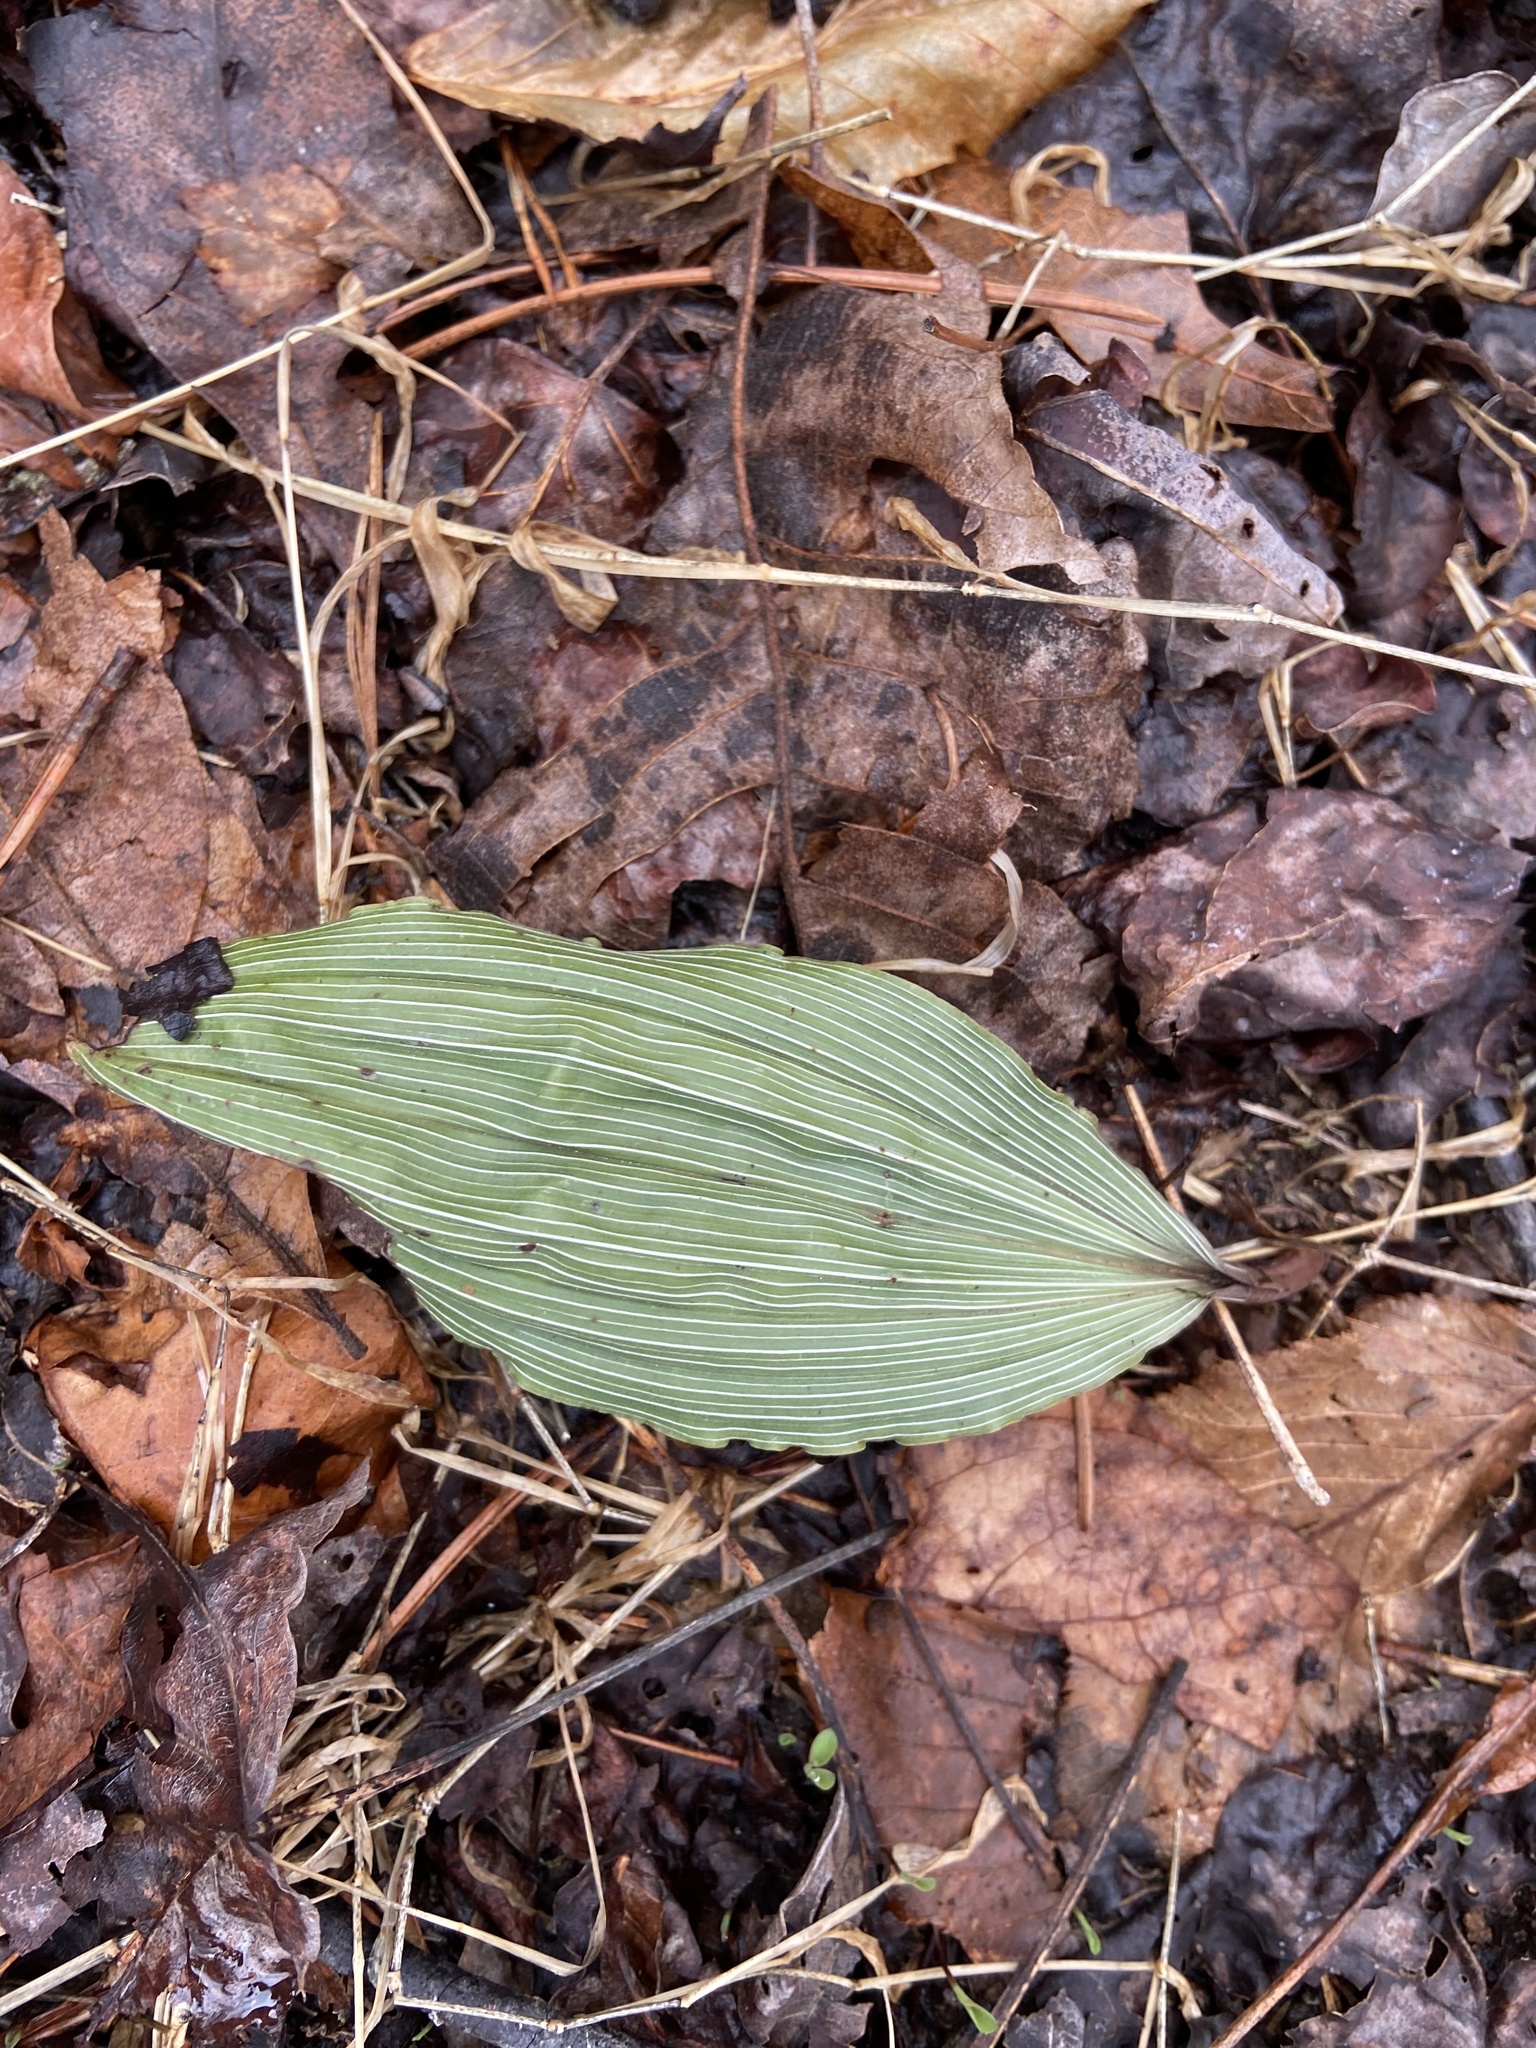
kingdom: Plantae
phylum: Tracheophyta
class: Liliopsida
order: Asparagales
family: Orchidaceae
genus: Aplectrum
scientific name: Aplectrum hyemale
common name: Adam-and-eve
